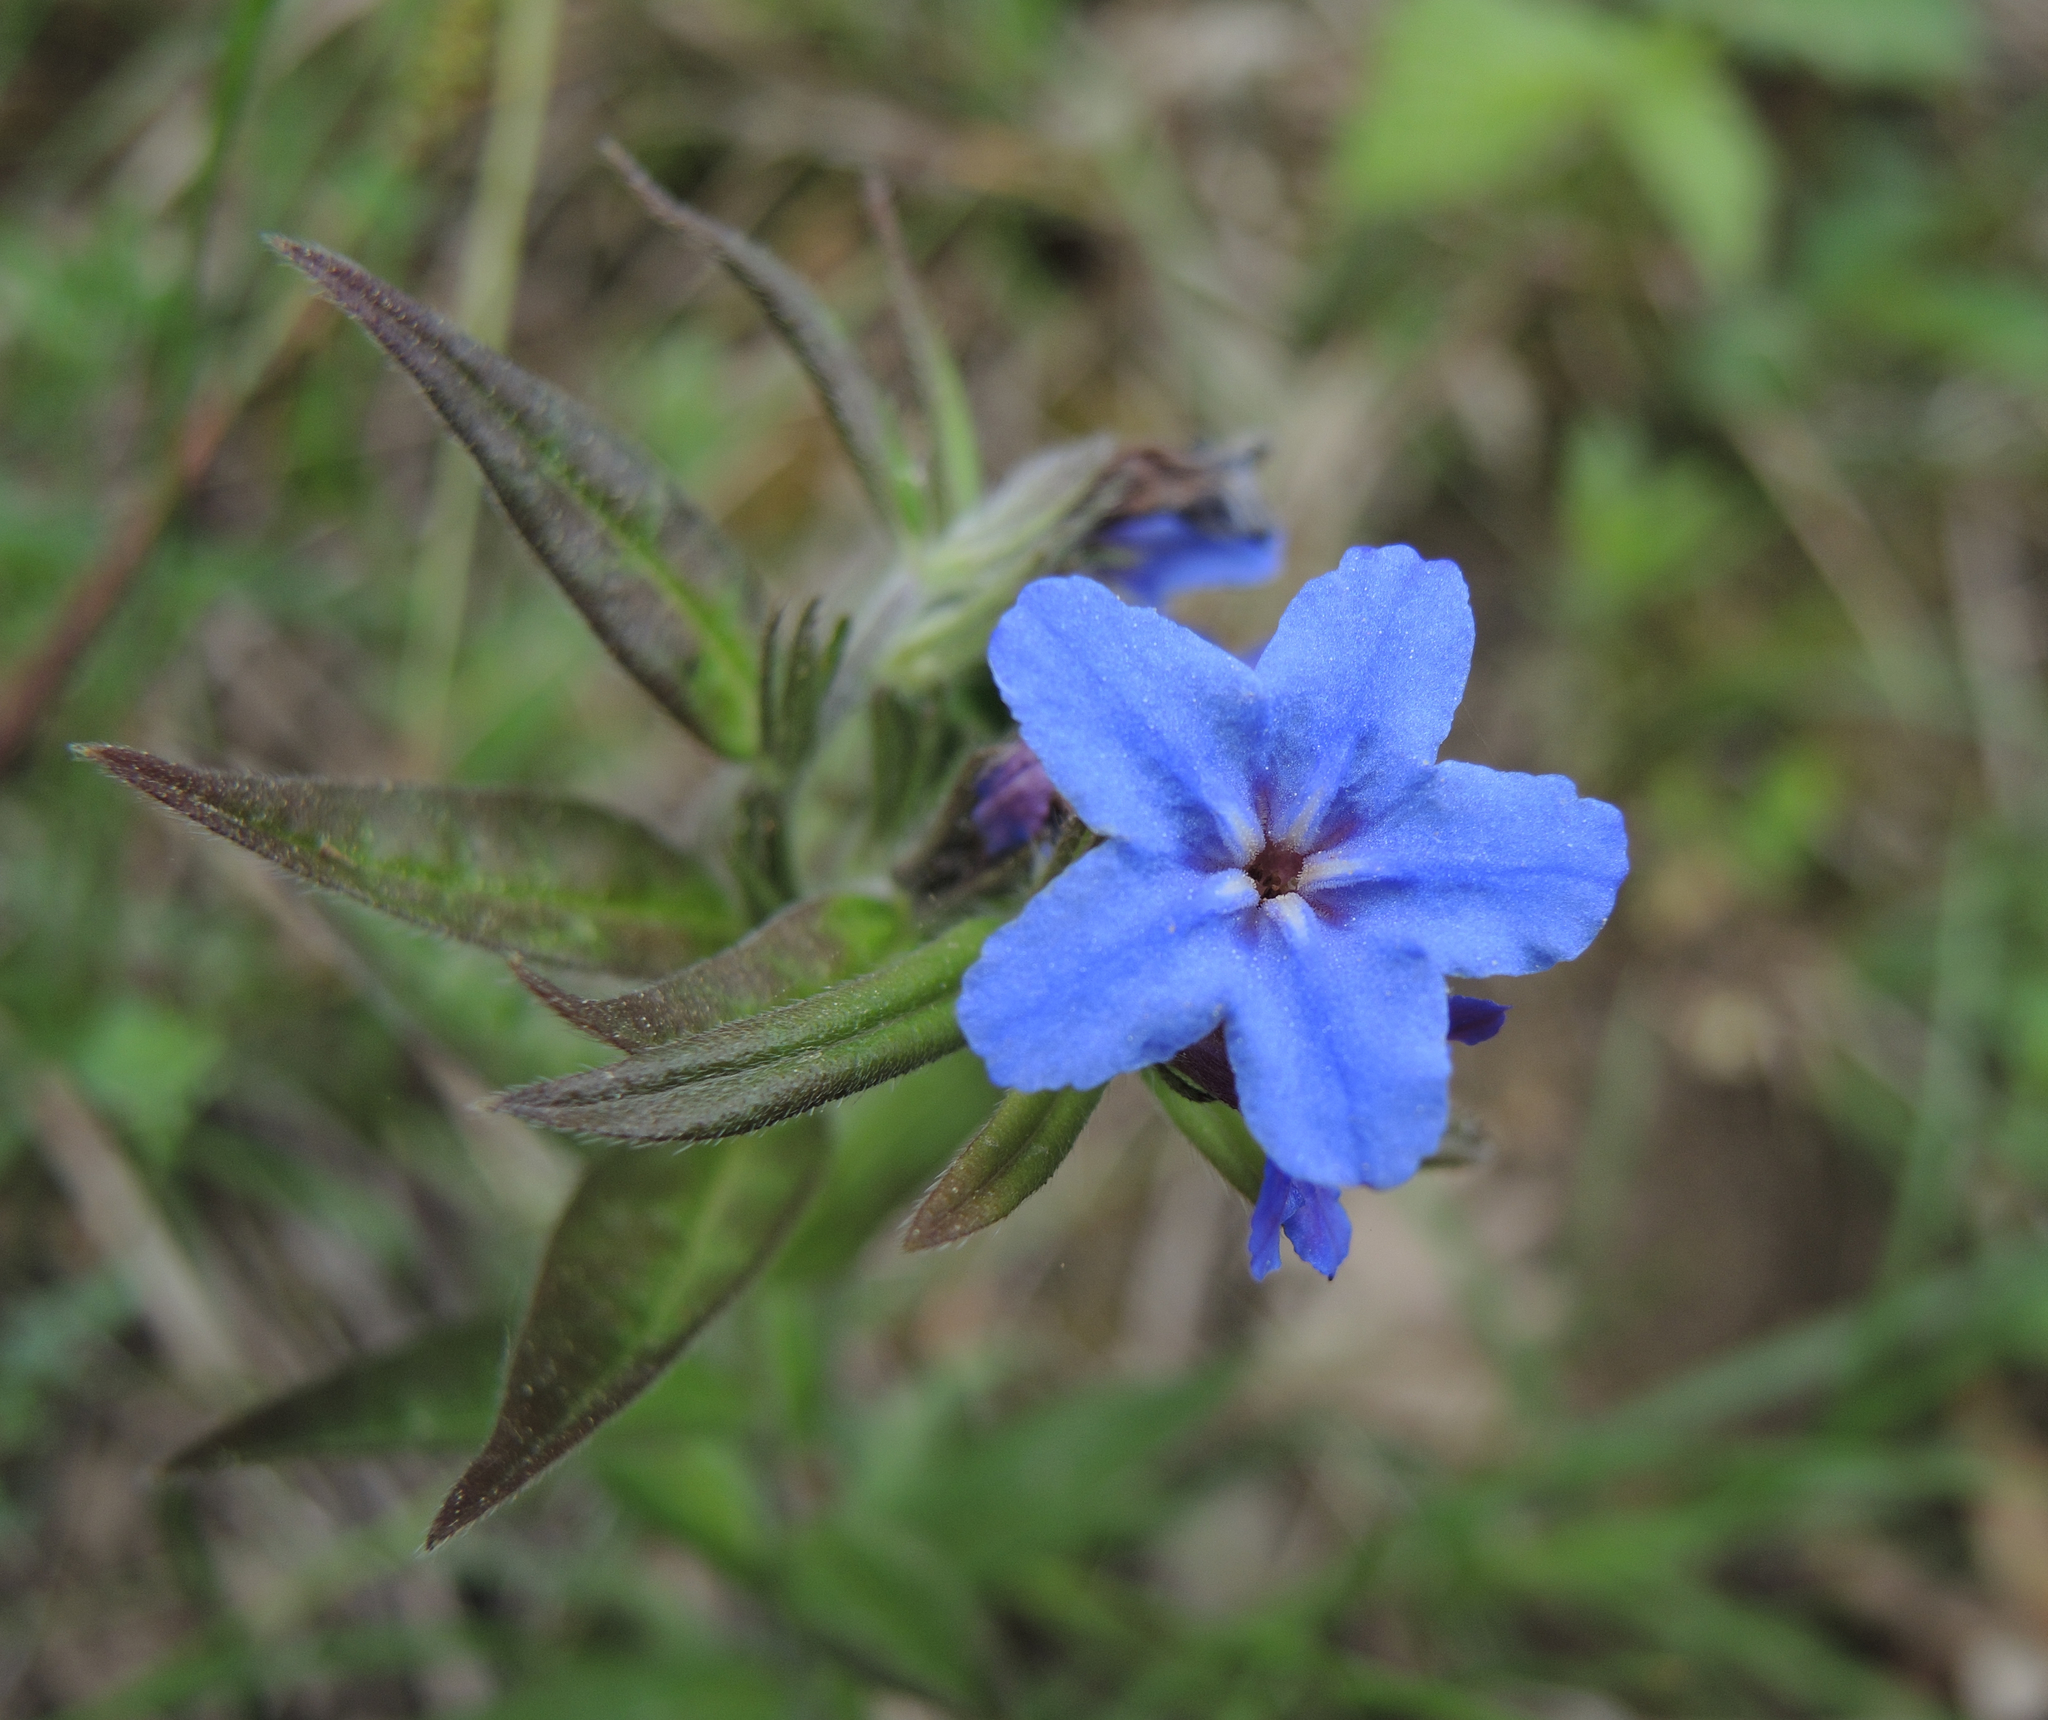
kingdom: Plantae
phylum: Tracheophyta
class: Magnoliopsida
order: Boraginales
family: Boraginaceae
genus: Aegonychon
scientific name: Aegonychon purpurocaeruleum
